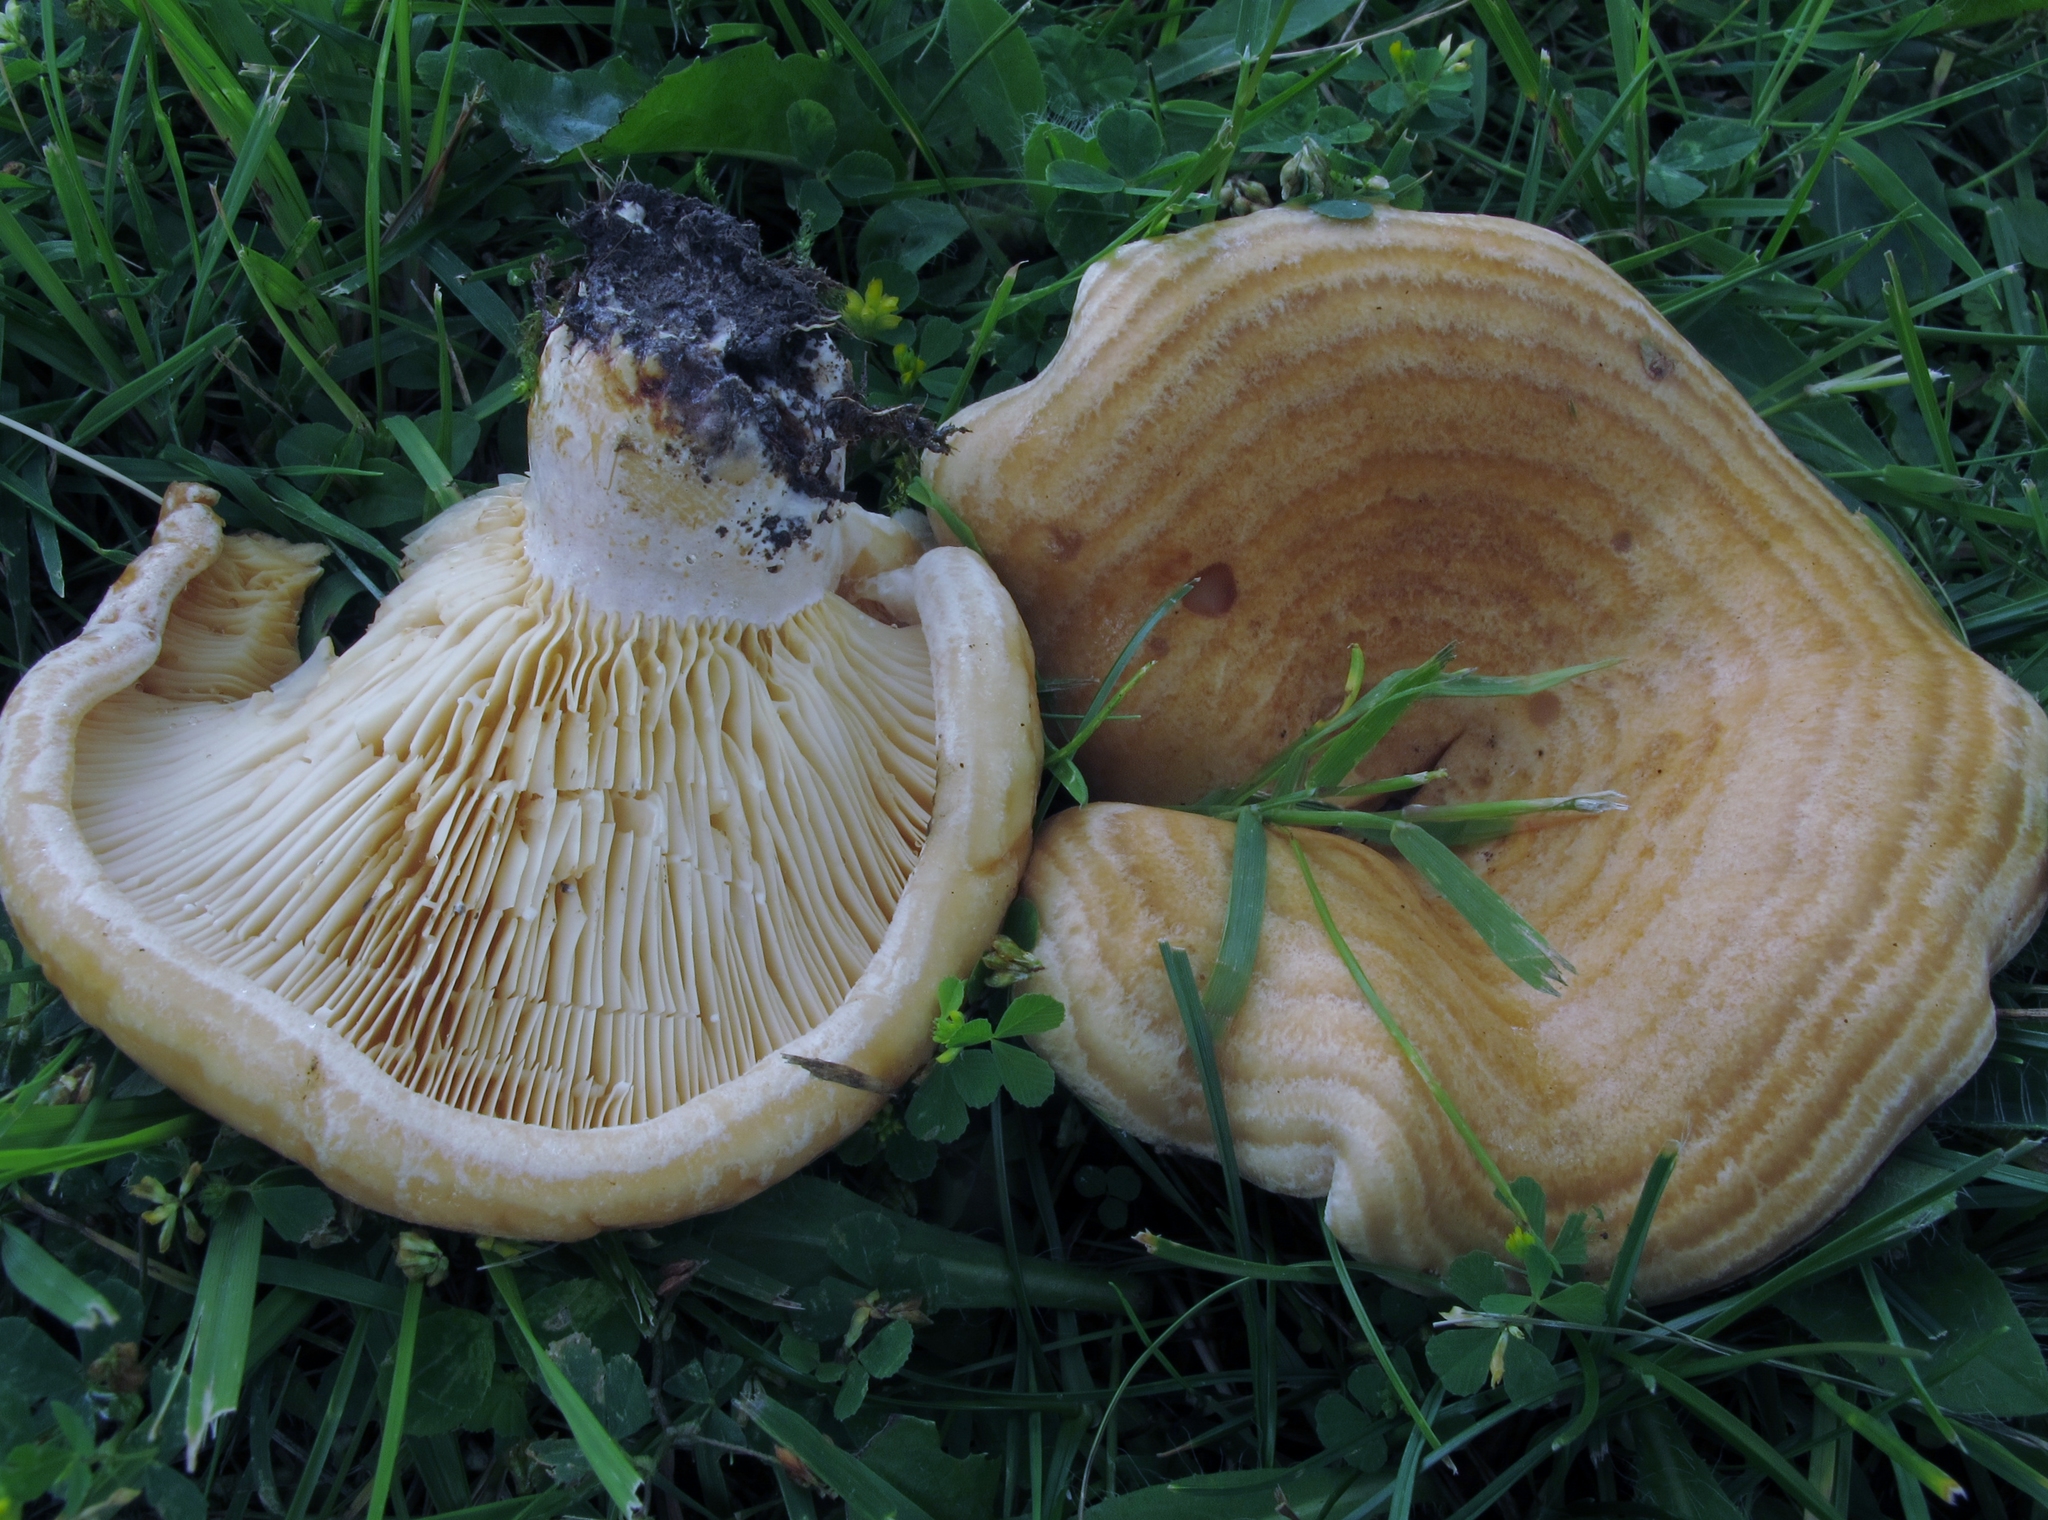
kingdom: Fungi
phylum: Basidiomycota
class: Agaricomycetes
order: Russulales
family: Russulaceae
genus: Lactarius
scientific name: Lactarius psammicola
